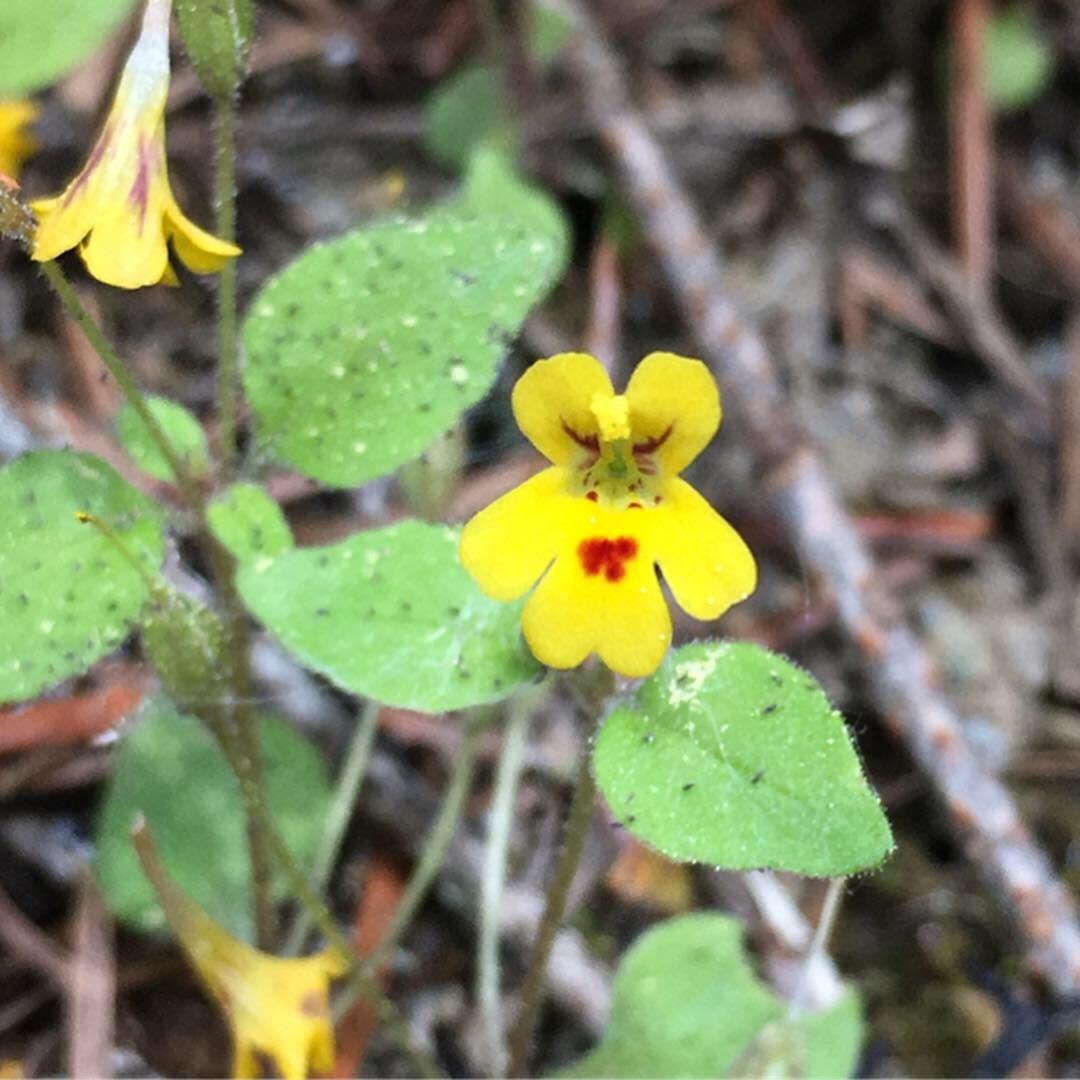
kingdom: Plantae
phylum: Tracheophyta
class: Magnoliopsida
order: Lamiales
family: Phrymaceae
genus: Erythranthe
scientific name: Erythranthe alsinoides
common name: Chickweed monkeyflower
